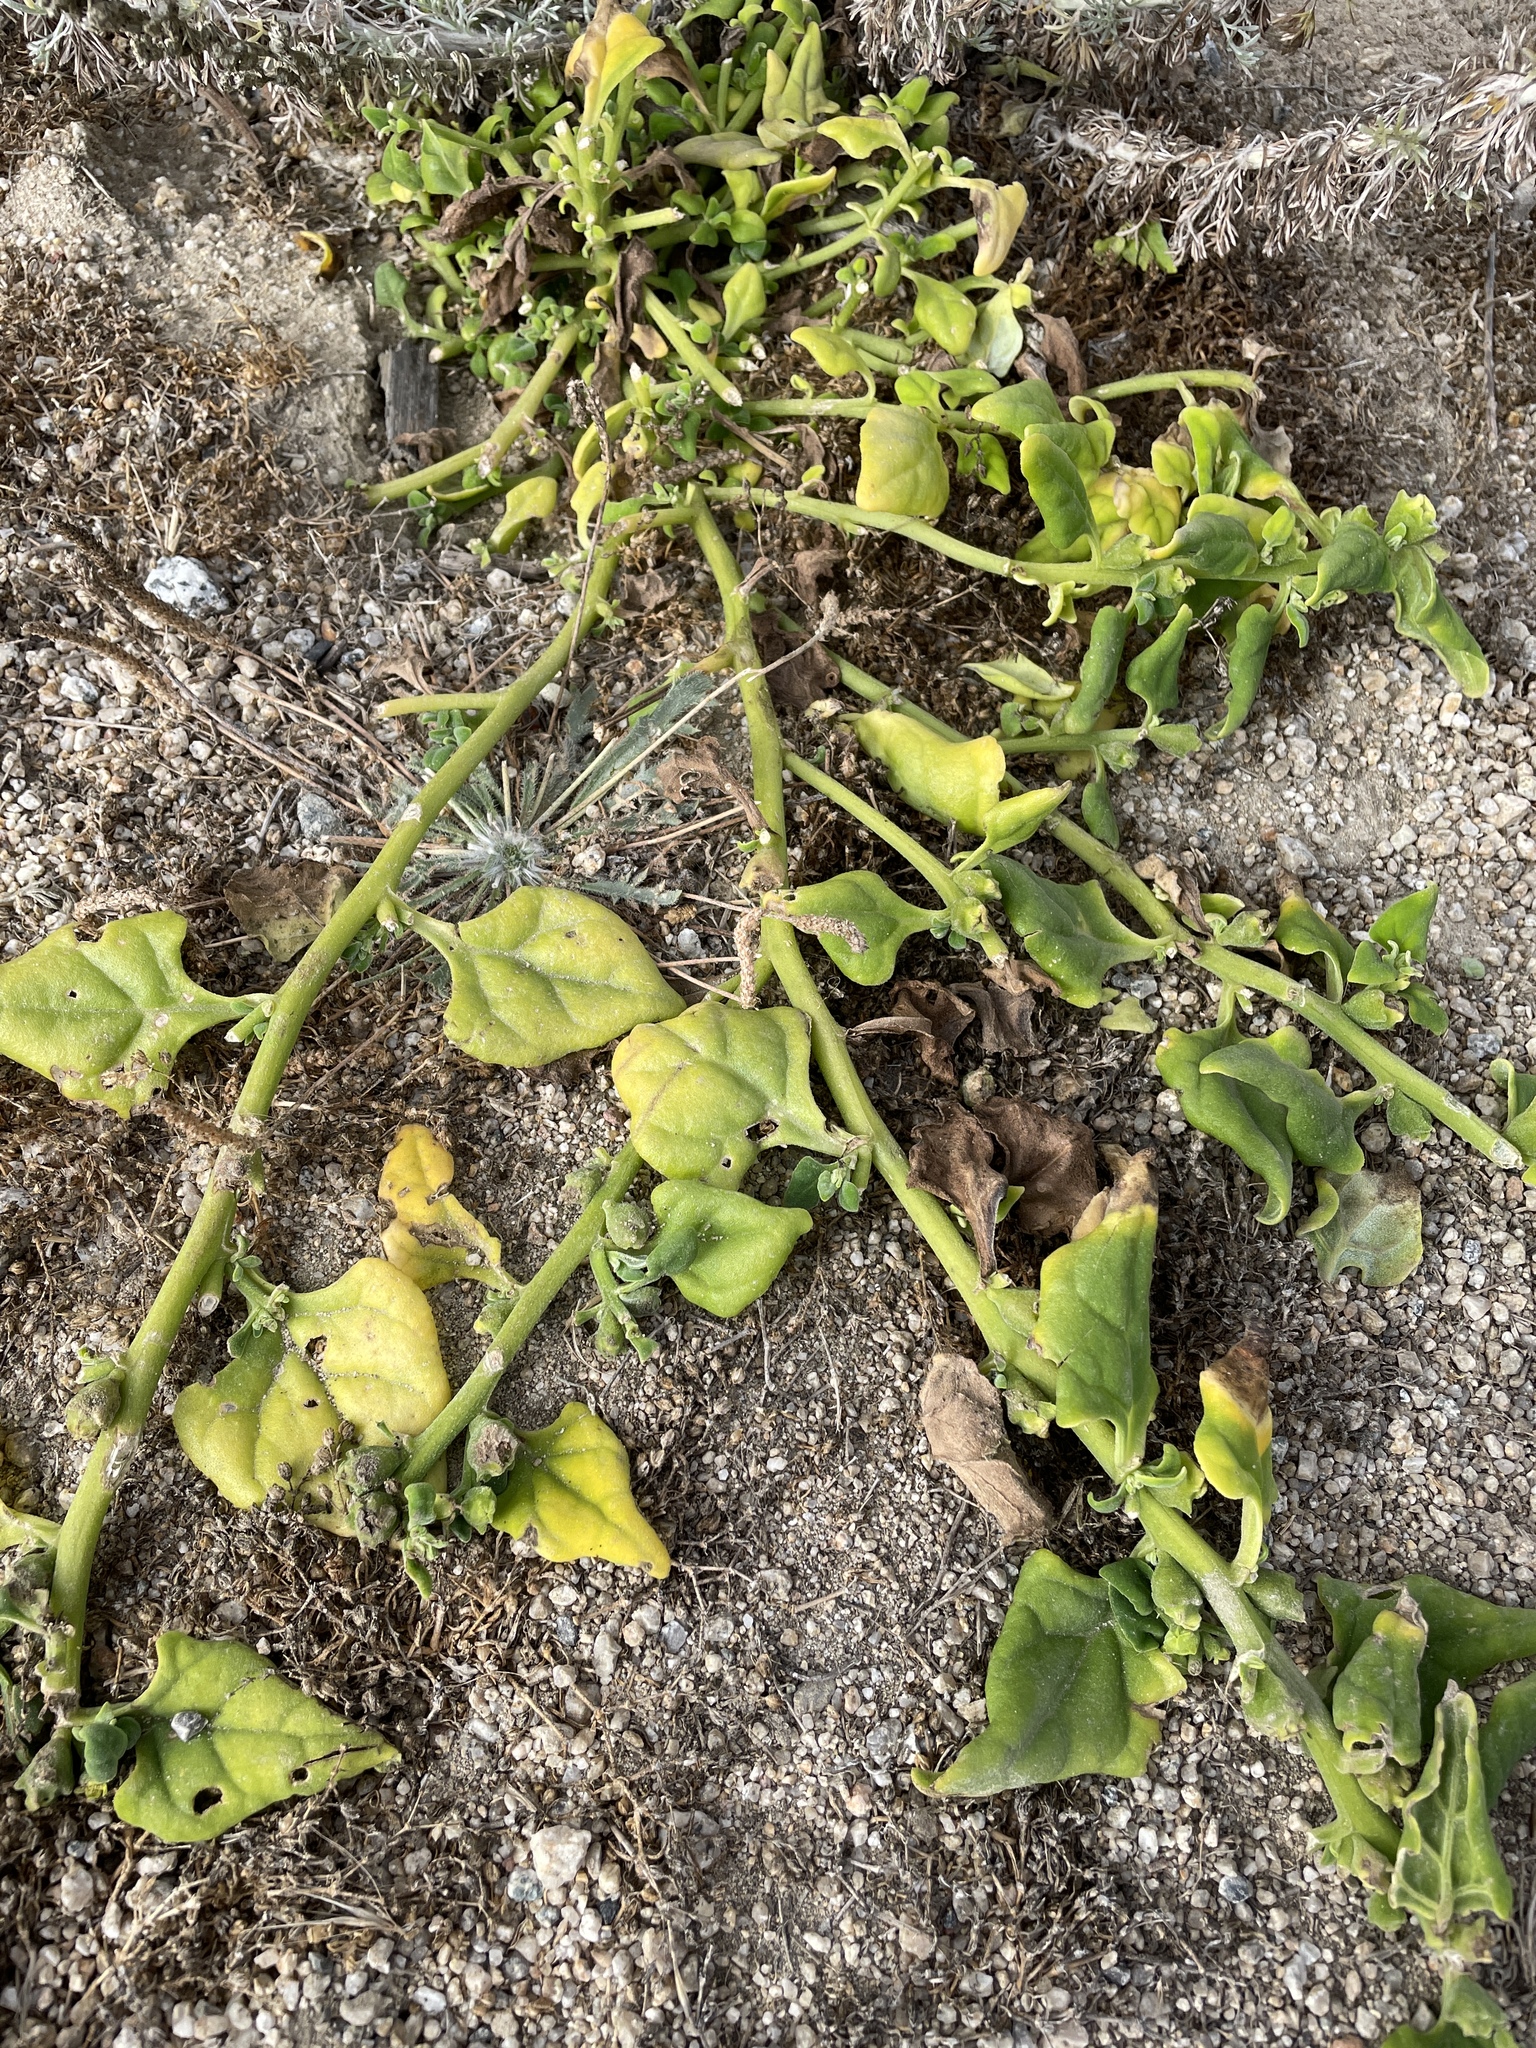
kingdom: Plantae
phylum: Tracheophyta
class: Magnoliopsida
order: Caryophyllales
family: Aizoaceae
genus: Tetragonia
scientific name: Tetragonia tetragonoides
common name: New zealand-spinach
